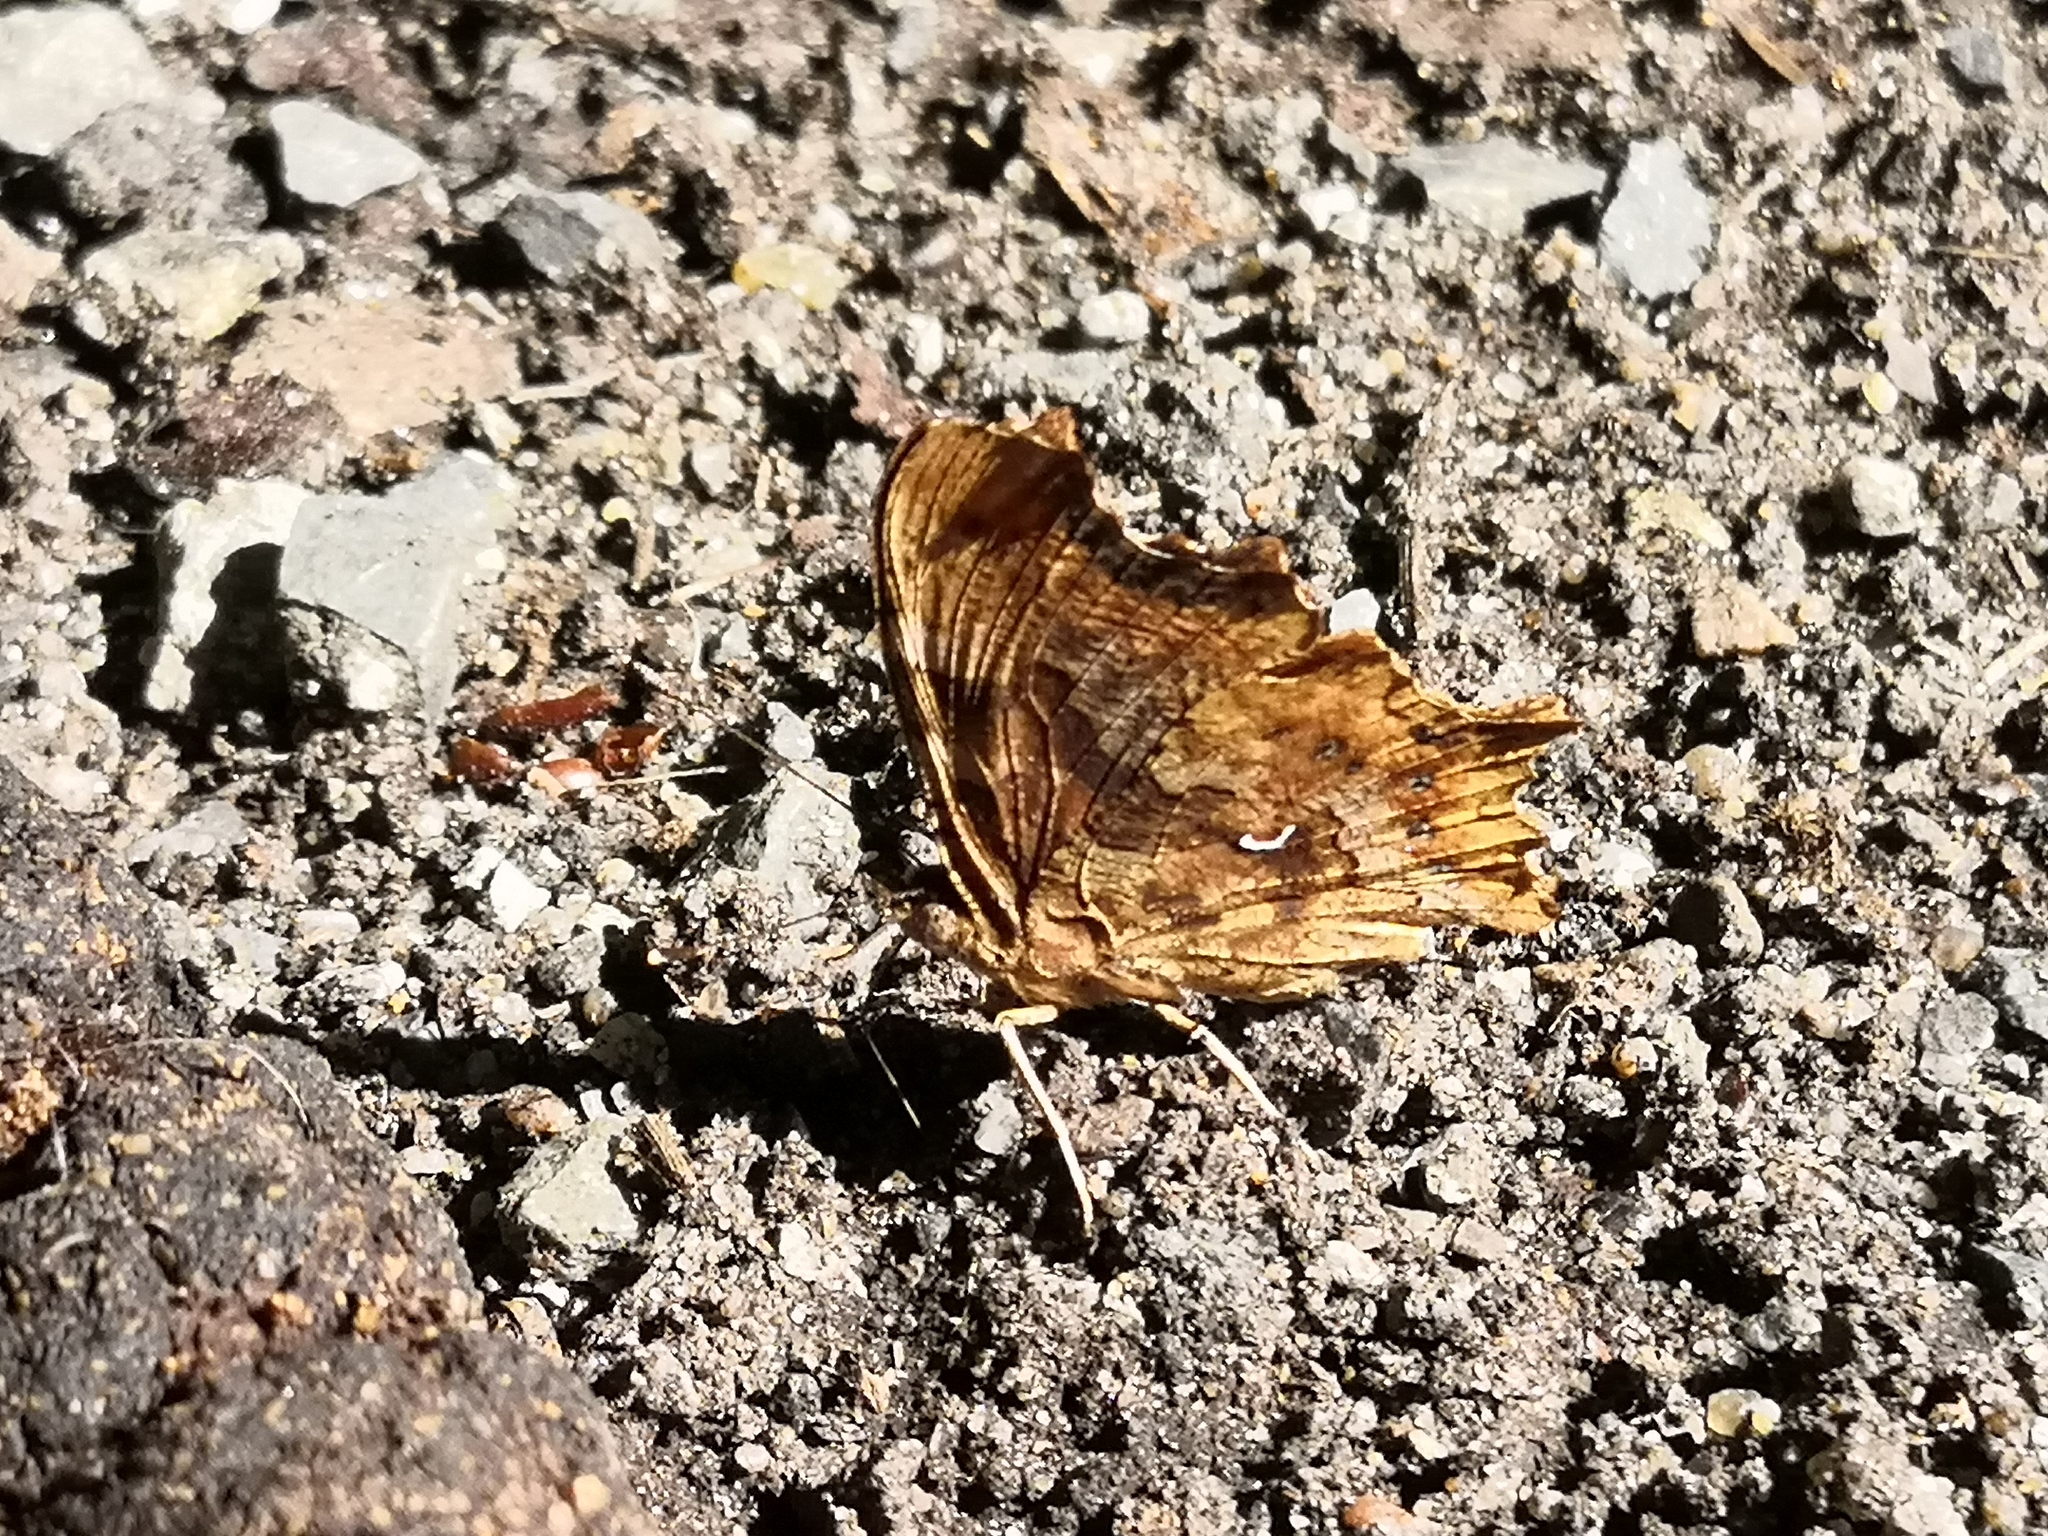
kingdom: Animalia
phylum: Arthropoda
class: Insecta
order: Lepidoptera
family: Nymphalidae
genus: Polygonia
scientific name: Polygonia c-album
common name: Comma
